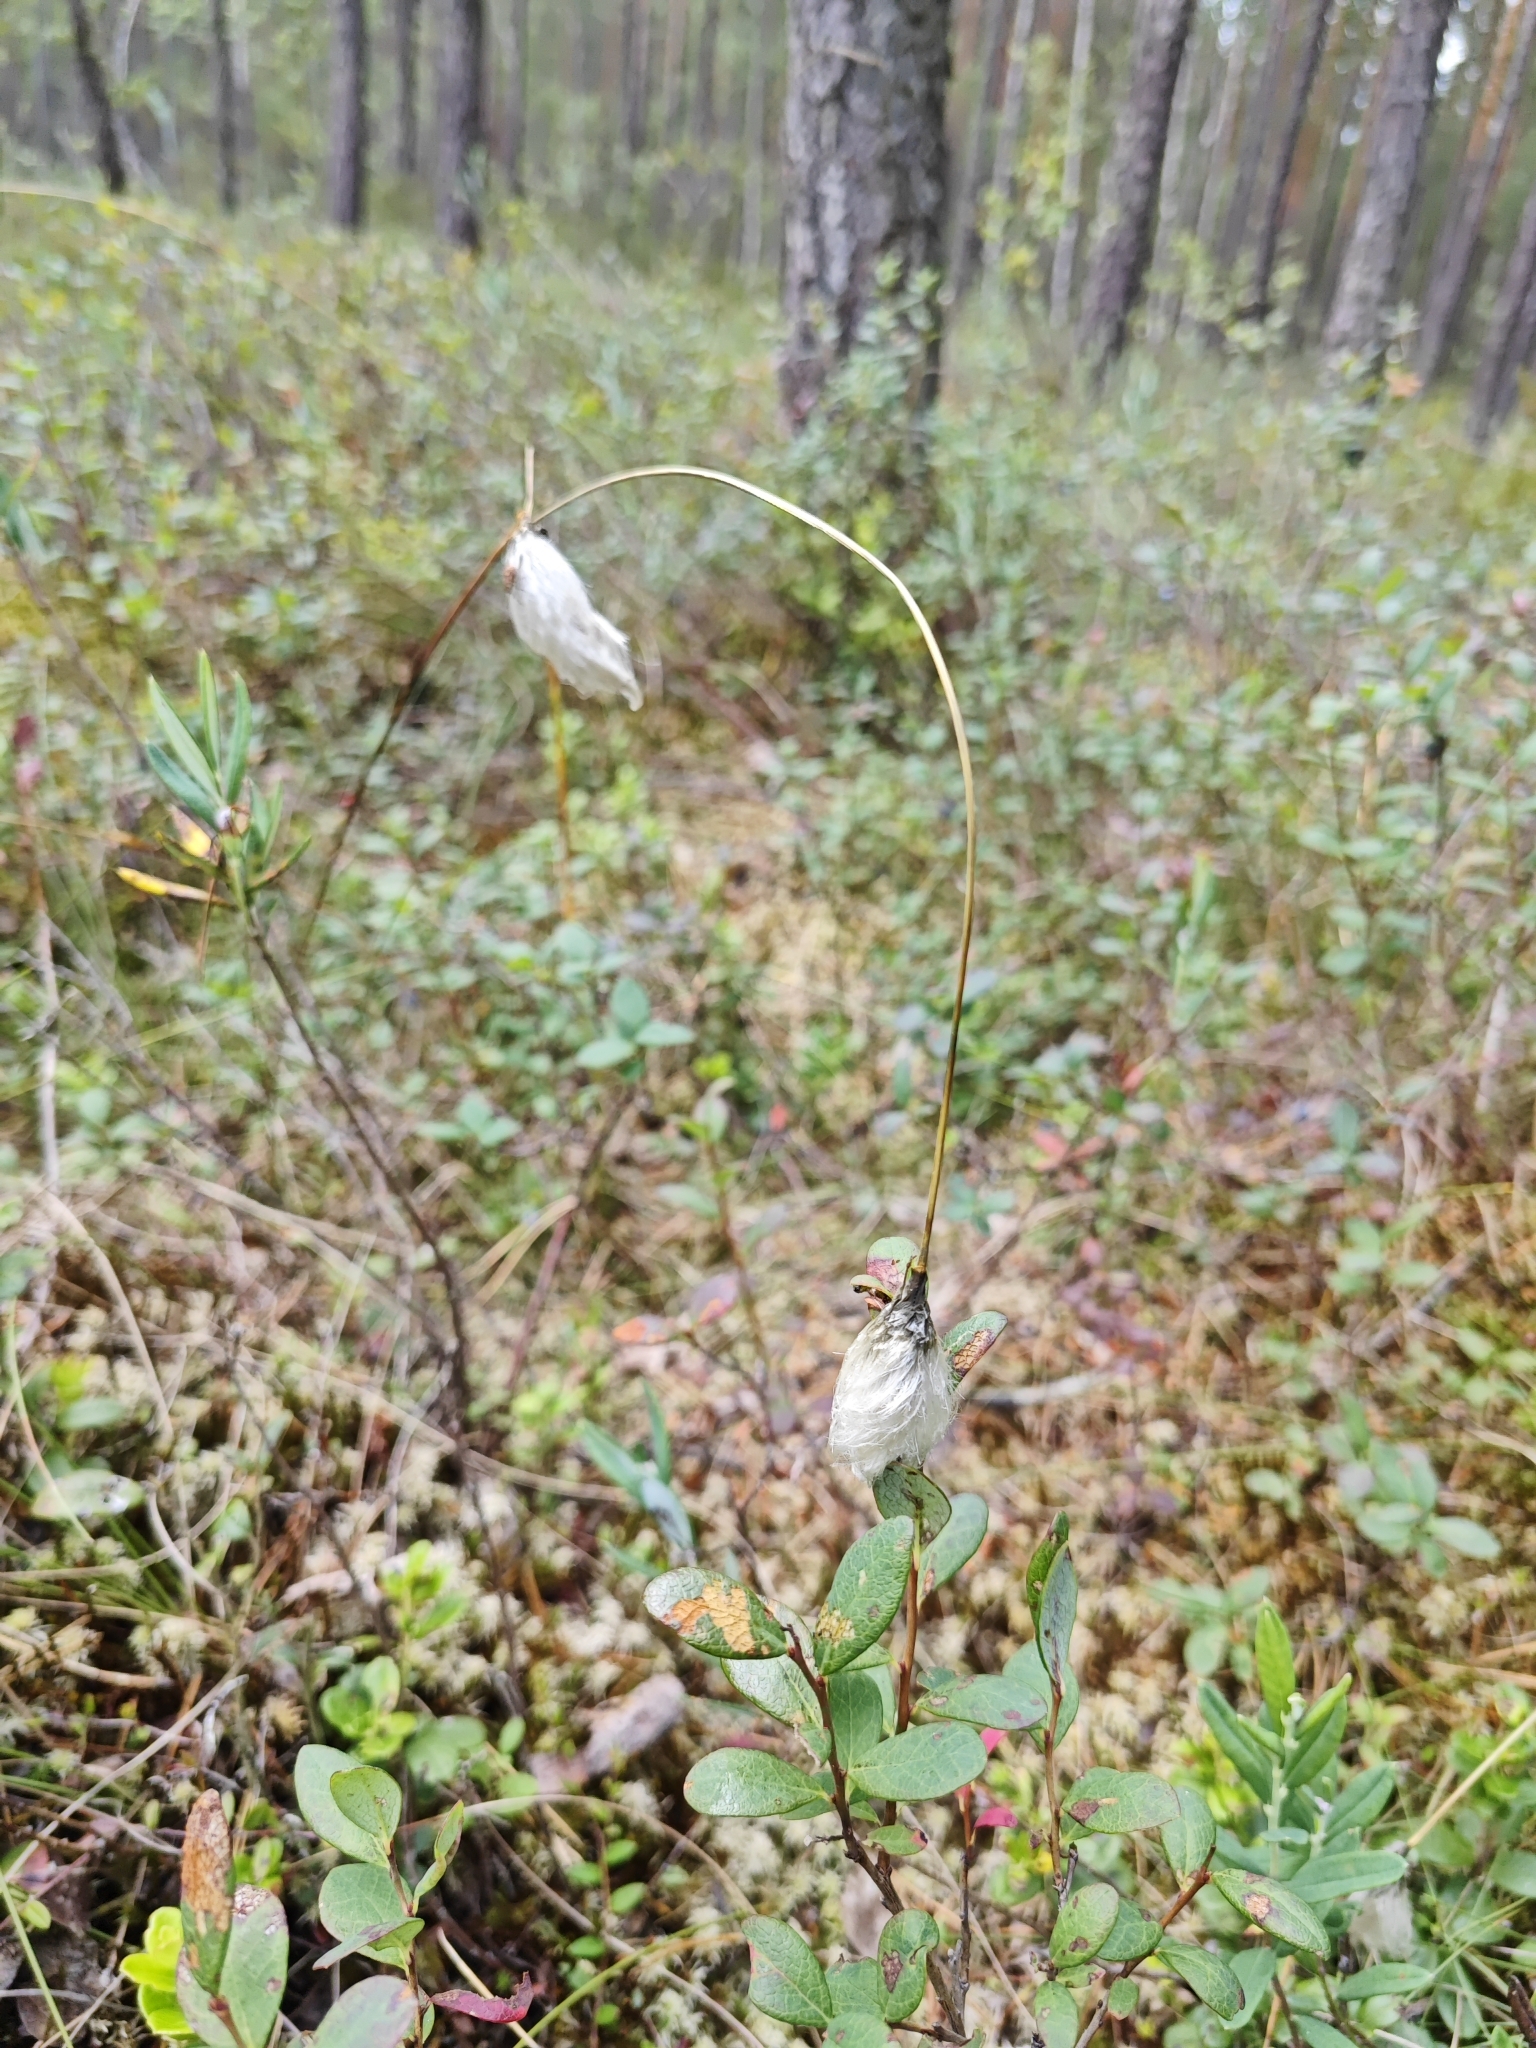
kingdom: Plantae
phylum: Tracheophyta
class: Liliopsida
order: Poales
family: Cyperaceae
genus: Eriophorum
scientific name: Eriophorum vaginatum
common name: Hare's-tail cottongrass
